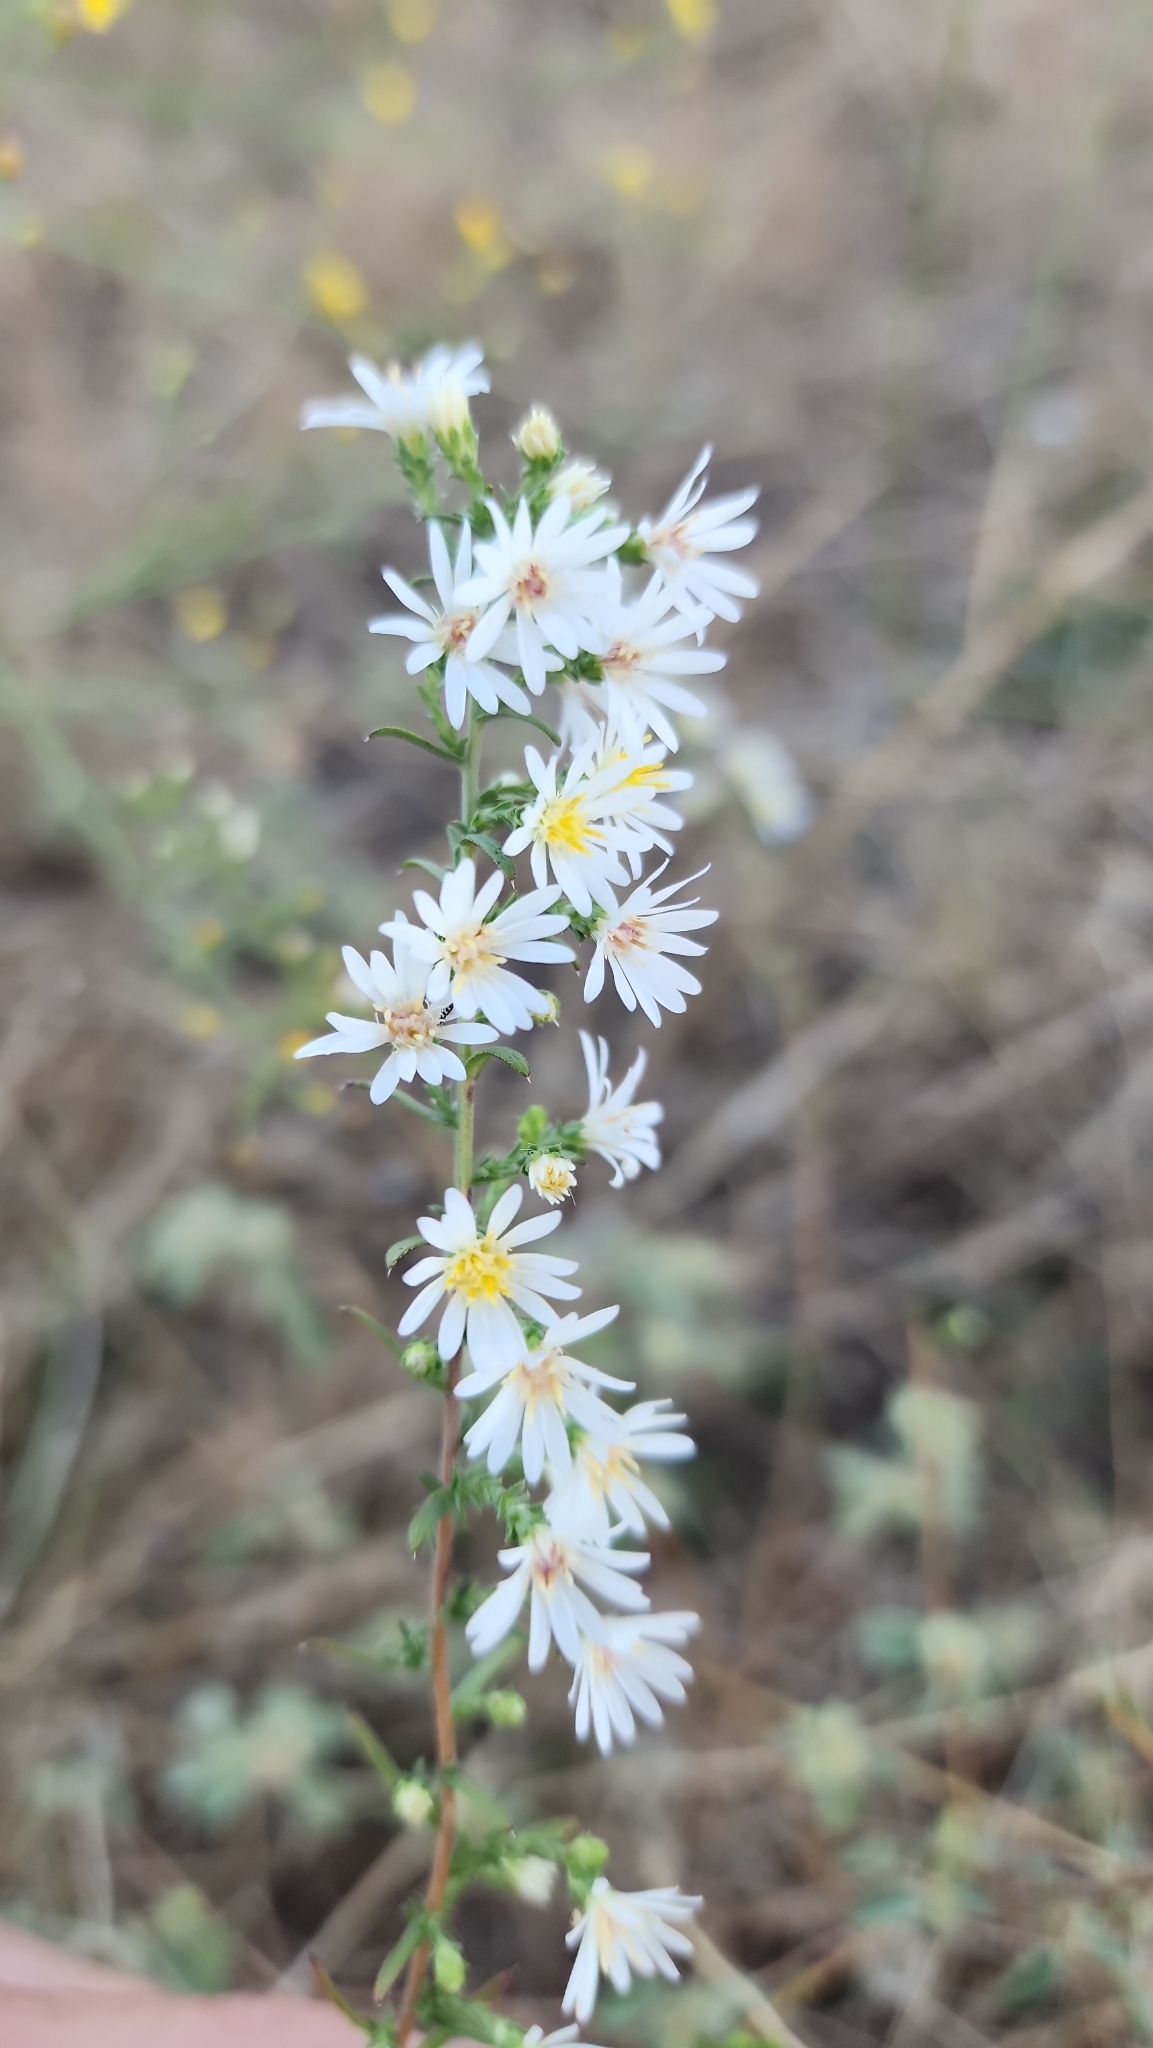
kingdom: Plantae
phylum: Tracheophyta
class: Magnoliopsida
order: Asterales
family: Asteraceae
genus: Symphyotrichum
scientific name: Symphyotrichum ericoides
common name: Heath aster
